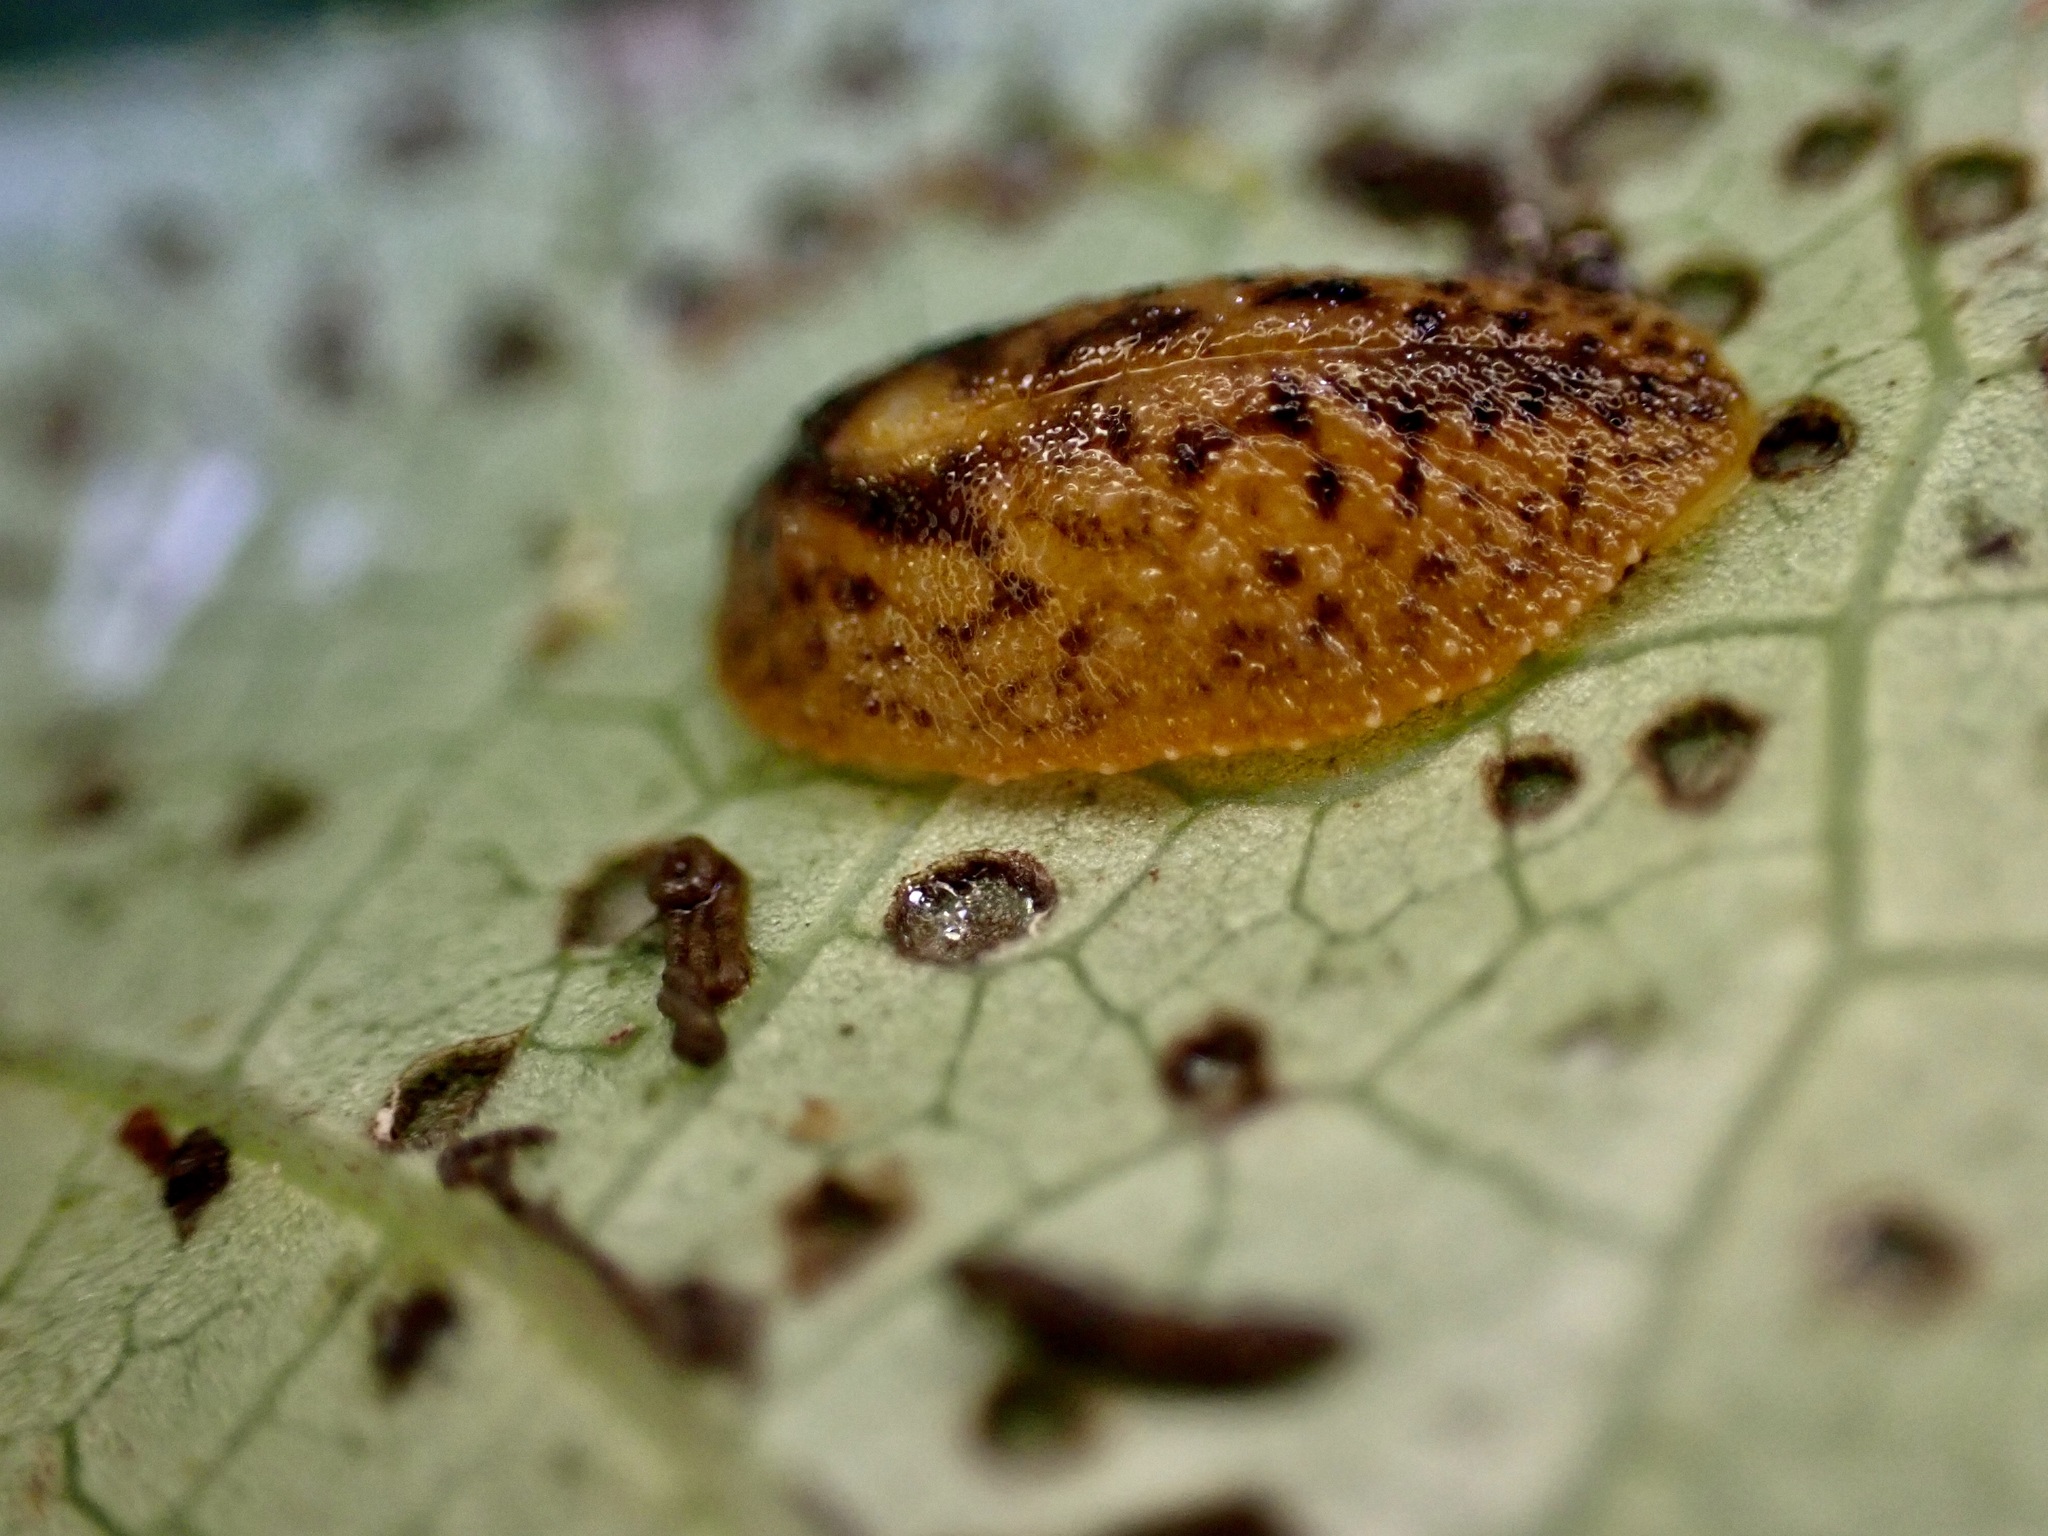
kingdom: Animalia
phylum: Mollusca
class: Gastropoda
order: Stylommatophora
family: Athoracophoridae
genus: Athoracophorus
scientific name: Athoracophorus
